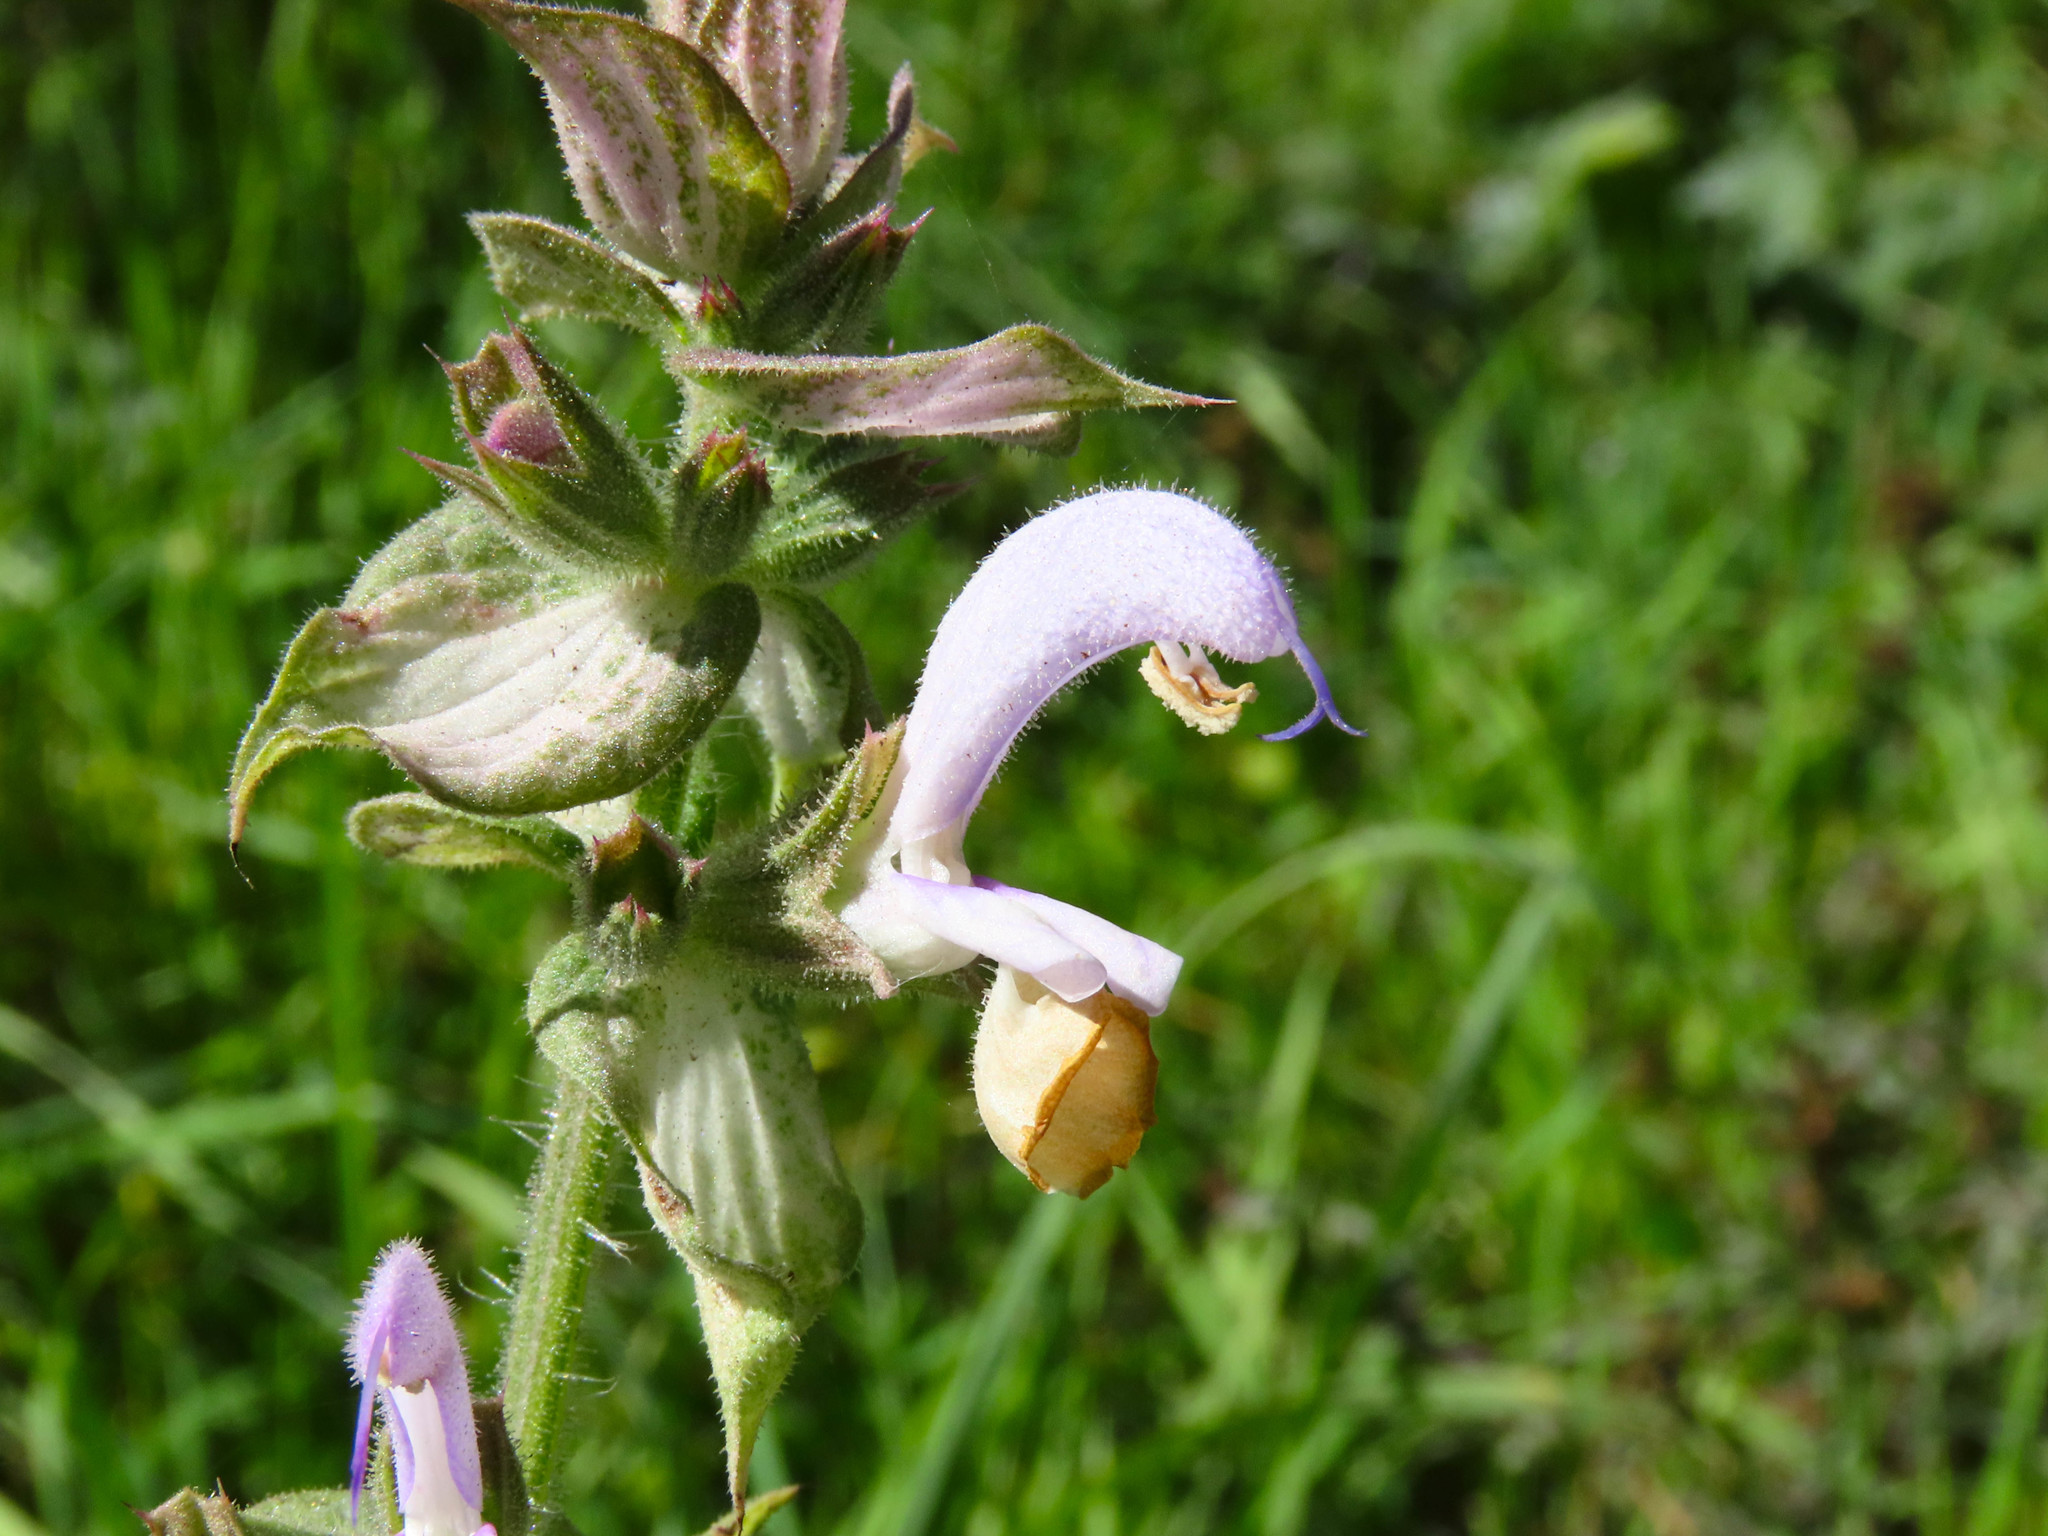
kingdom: Plantae
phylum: Tracheophyta
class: Magnoliopsida
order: Lamiales
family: Lamiaceae
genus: Salvia
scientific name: Salvia sclarea
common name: Clary
